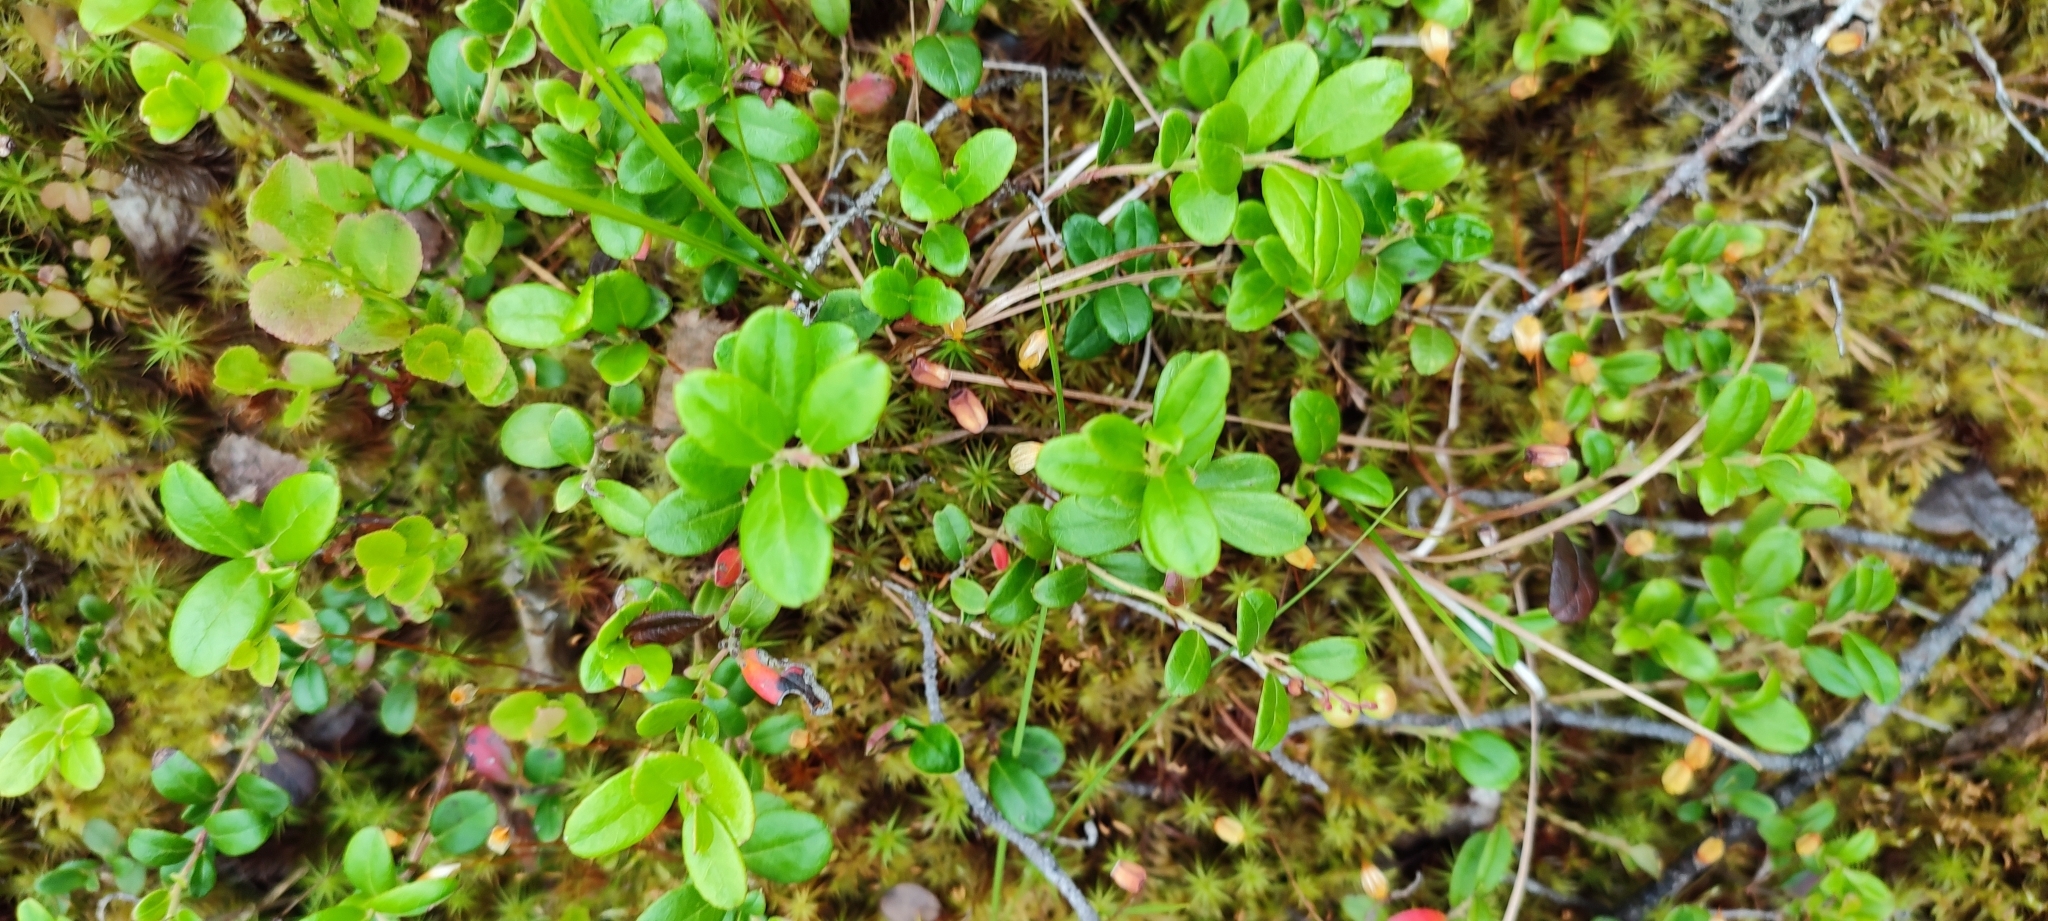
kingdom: Plantae
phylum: Tracheophyta
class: Magnoliopsida
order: Ericales
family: Ericaceae
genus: Vaccinium
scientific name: Vaccinium vitis-idaea
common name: Cowberry
